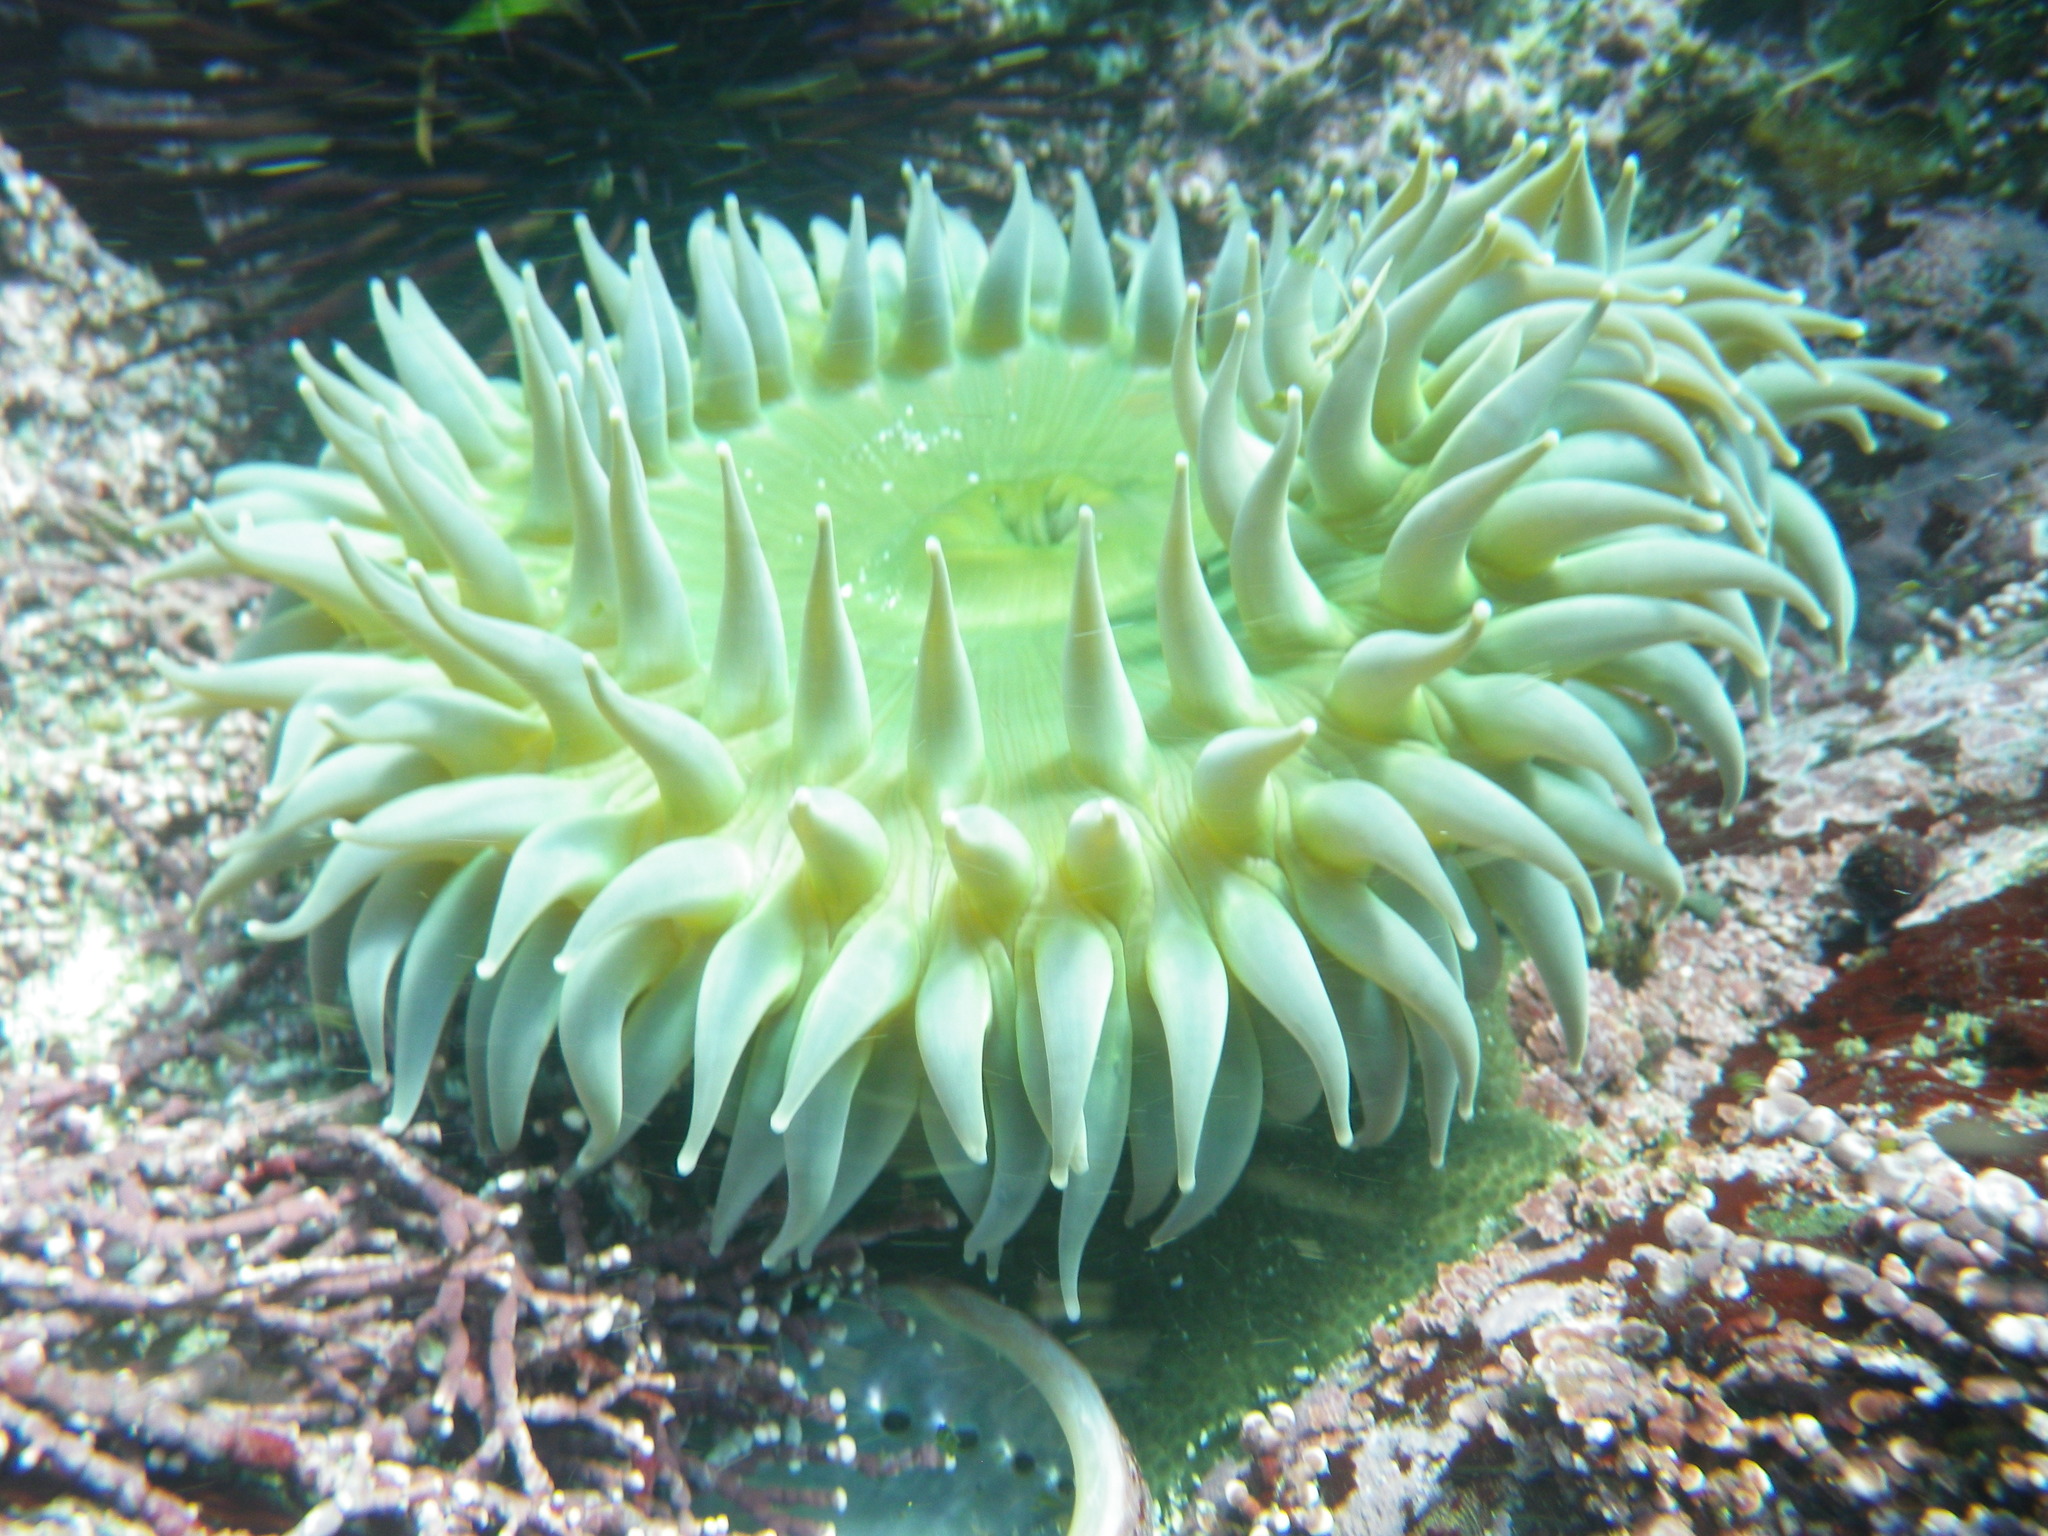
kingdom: Animalia
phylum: Cnidaria
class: Anthozoa
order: Actiniaria
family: Actiniidae
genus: Anthopleura
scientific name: Anthopleura xanthogrammica
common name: Giant green anemone
